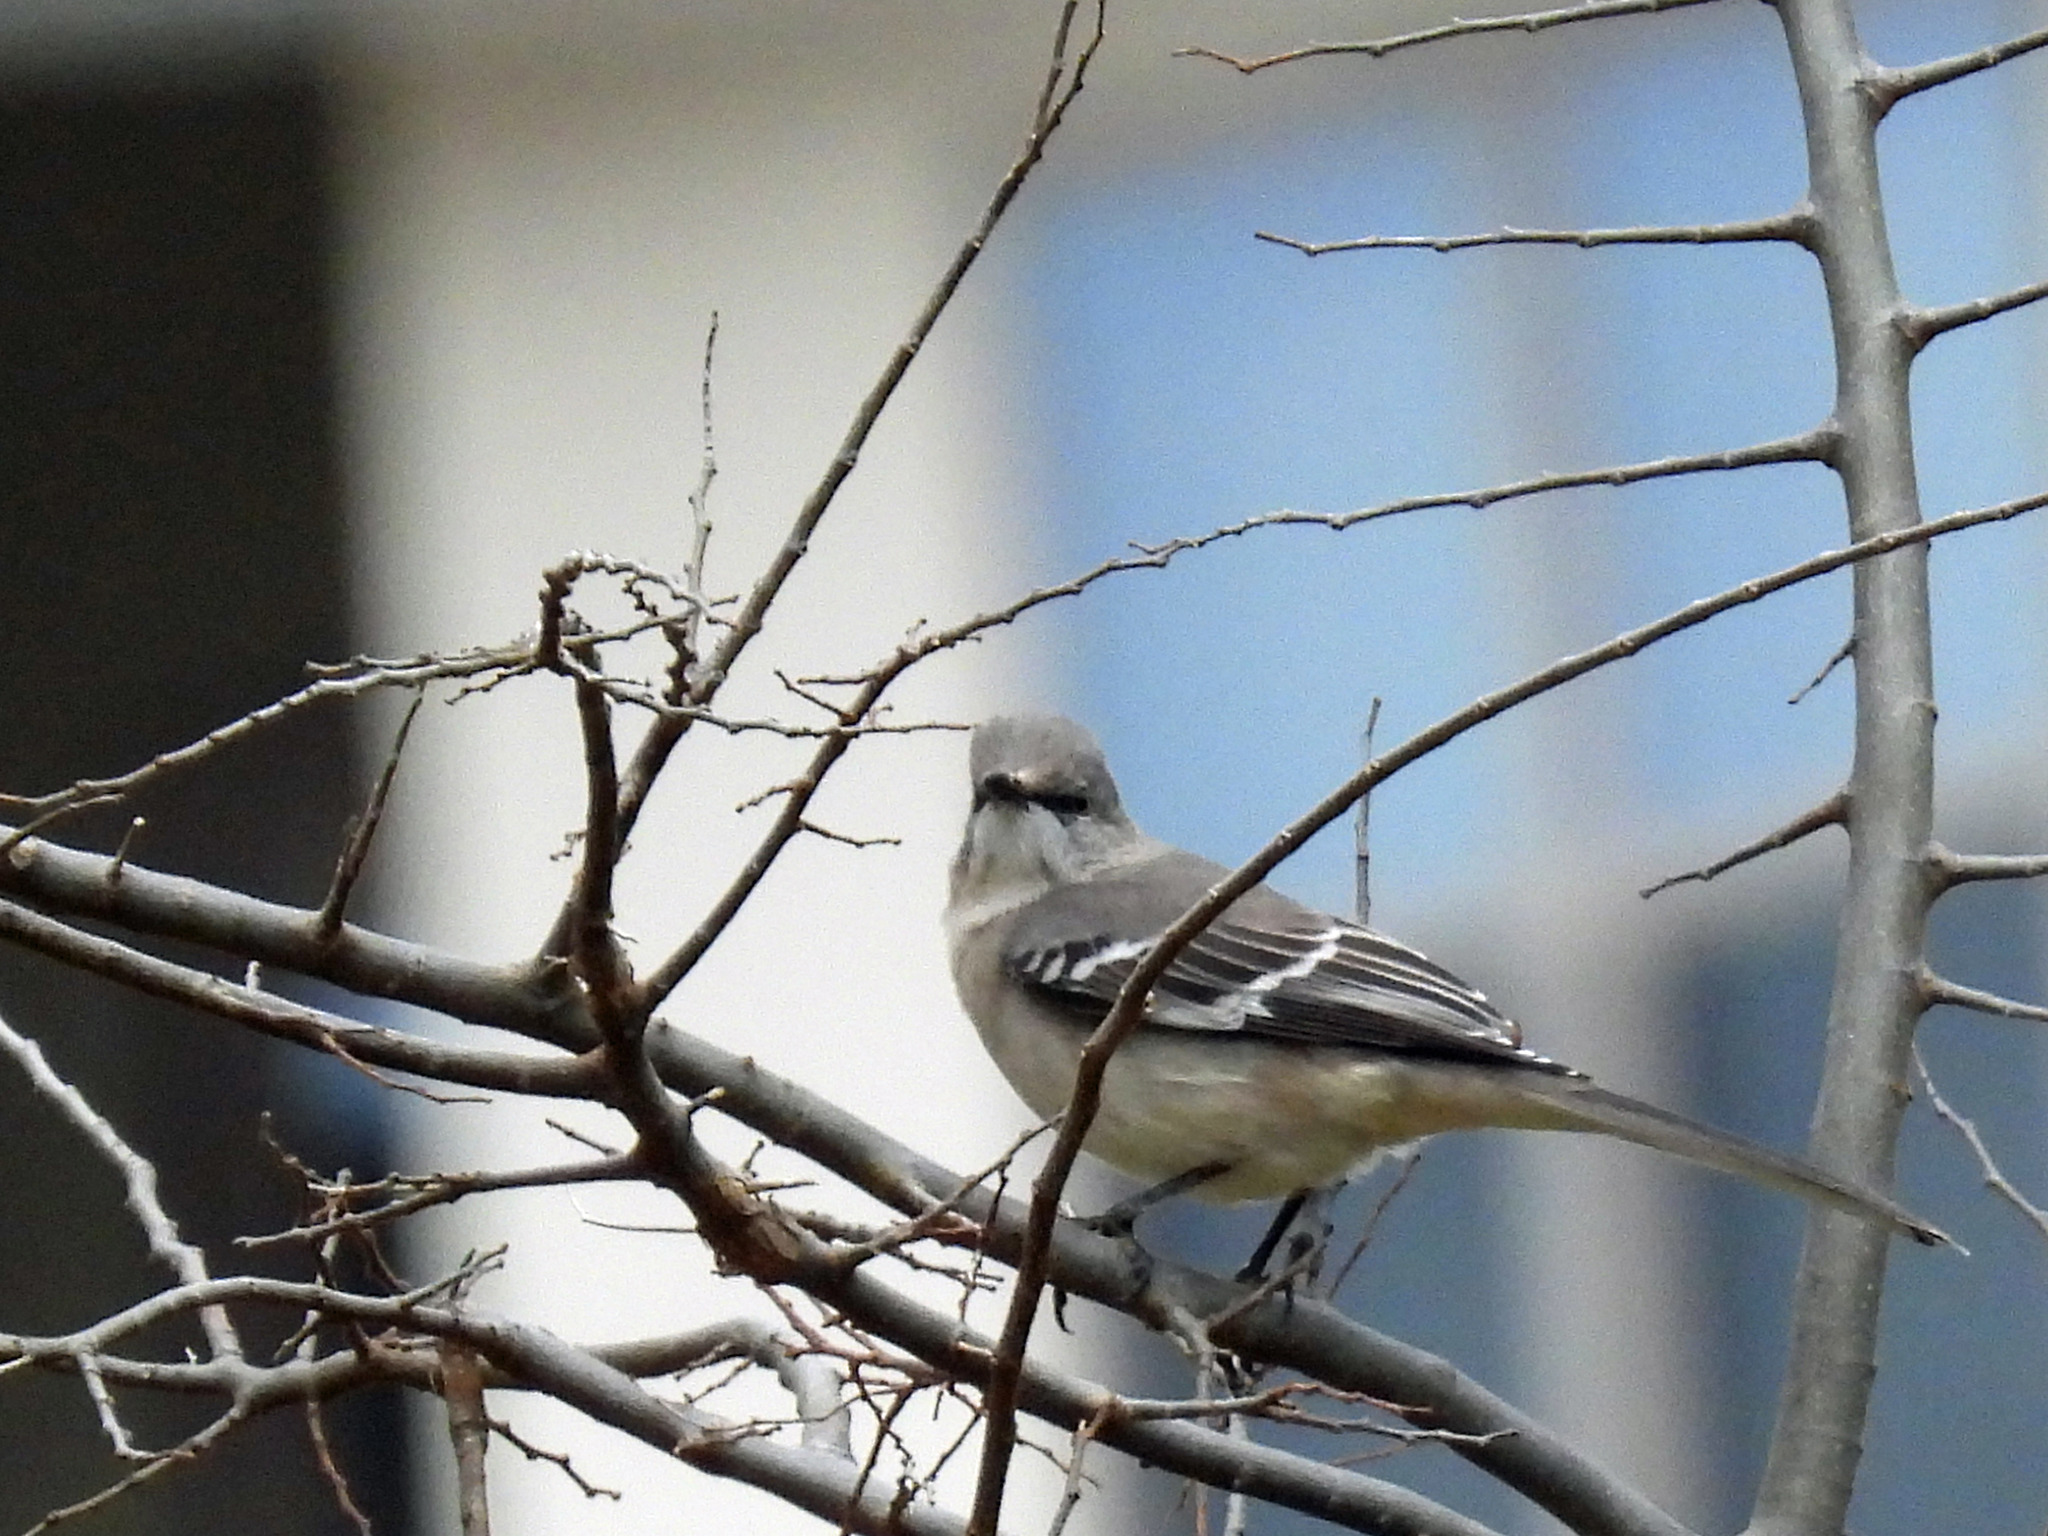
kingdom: Animalia
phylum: Chordata
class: Aves
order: Passeriformes
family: Mimidae
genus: Mimus
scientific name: Mimus polyglottos
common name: Northern mockingbird
